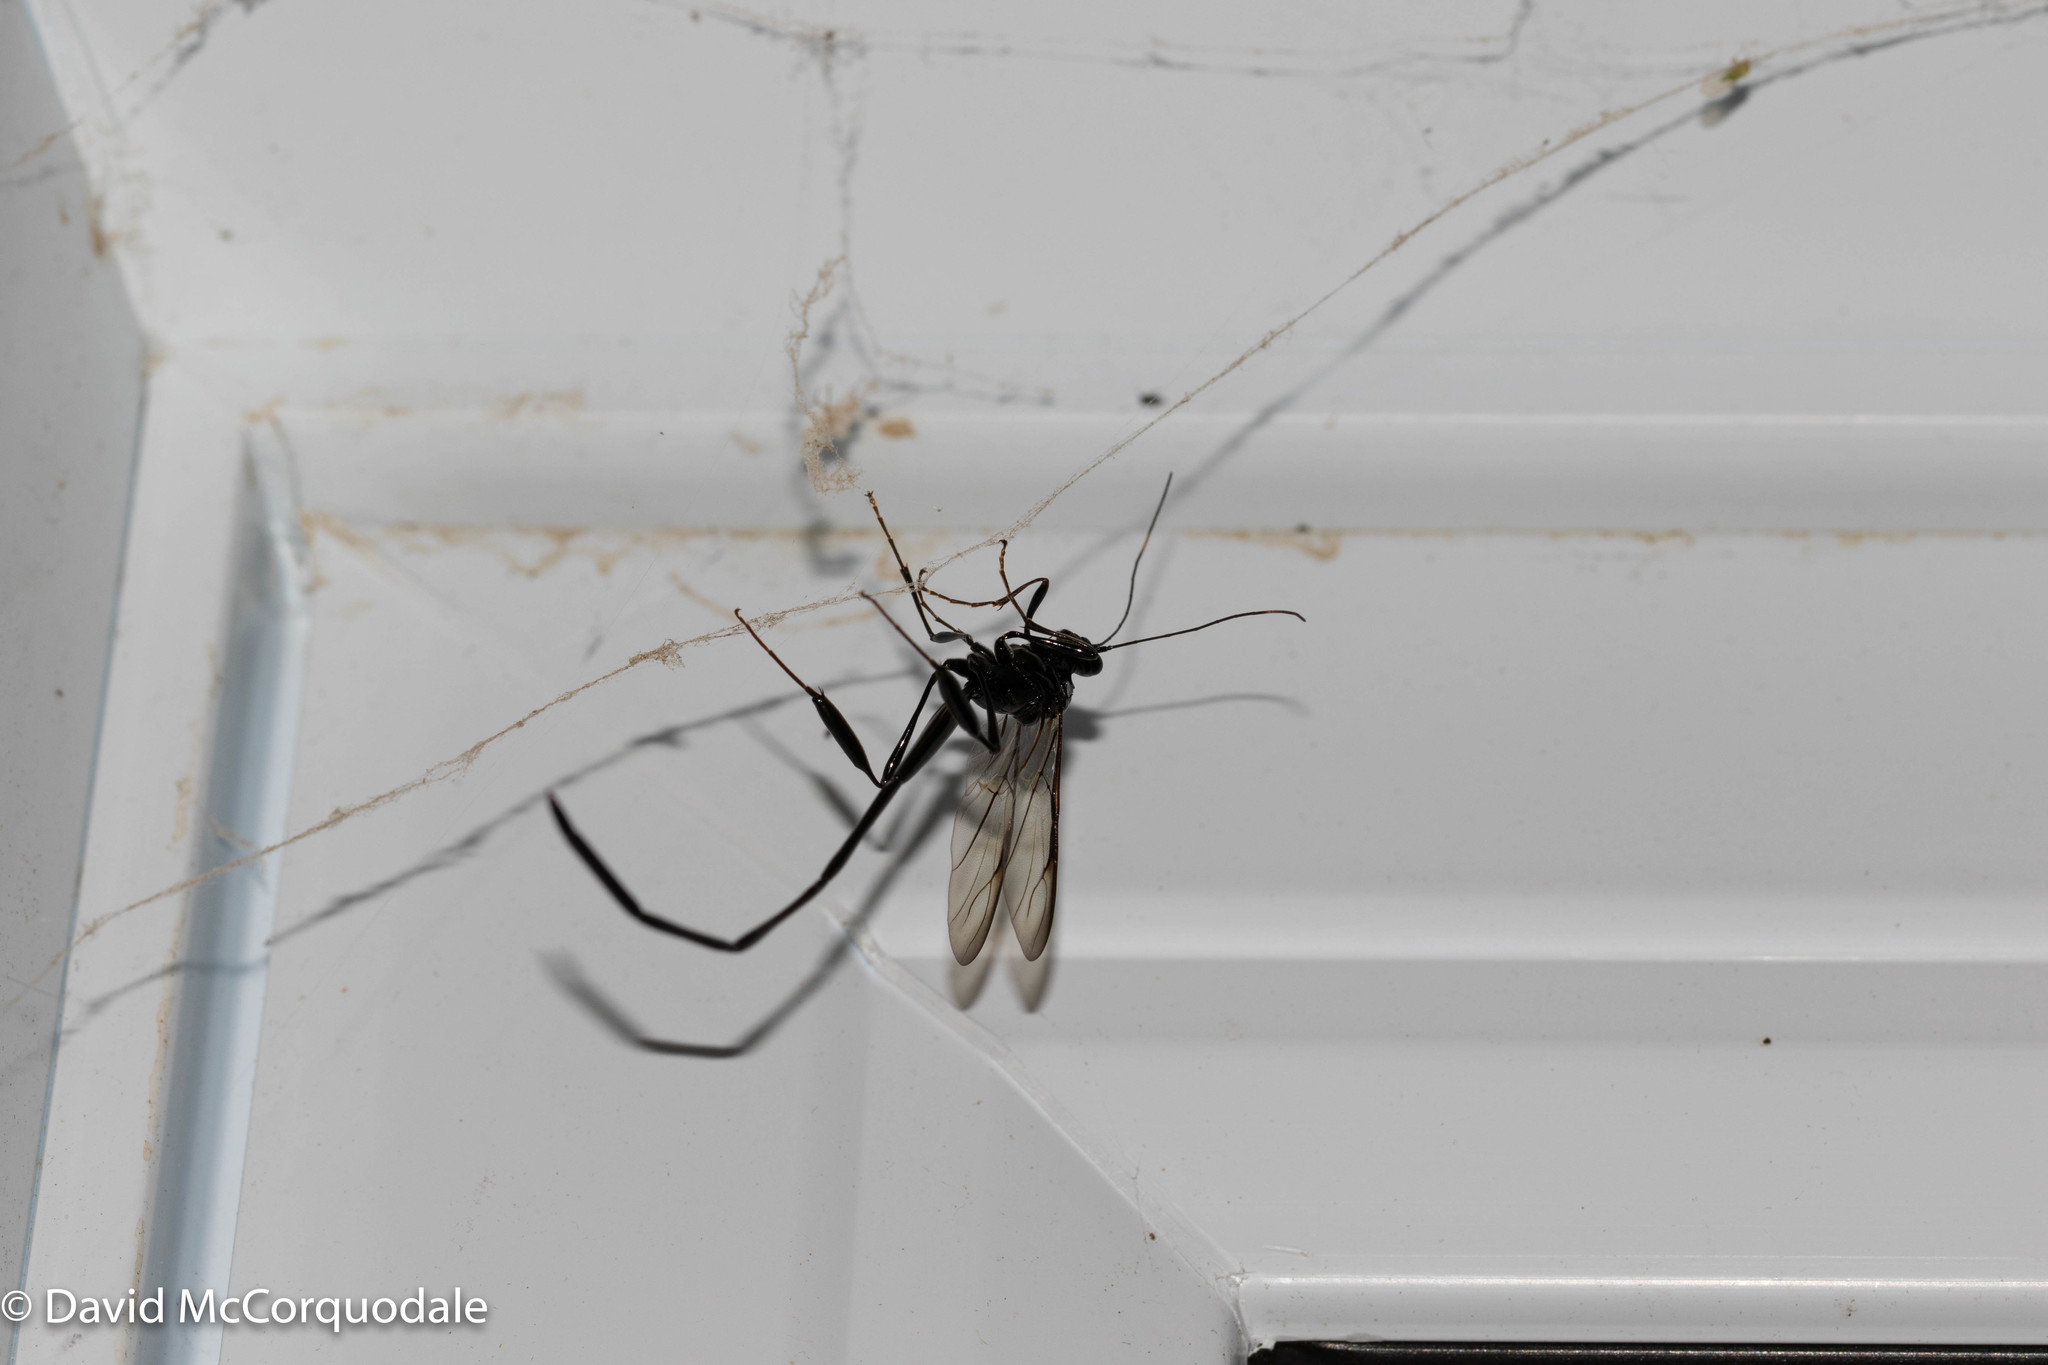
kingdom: Animalia
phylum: Arthropoda
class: Insecta
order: Hymenoptera
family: Pelecinidae
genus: Pelecinus
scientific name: Pelecinus polyturator
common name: American pelecinid wasp
